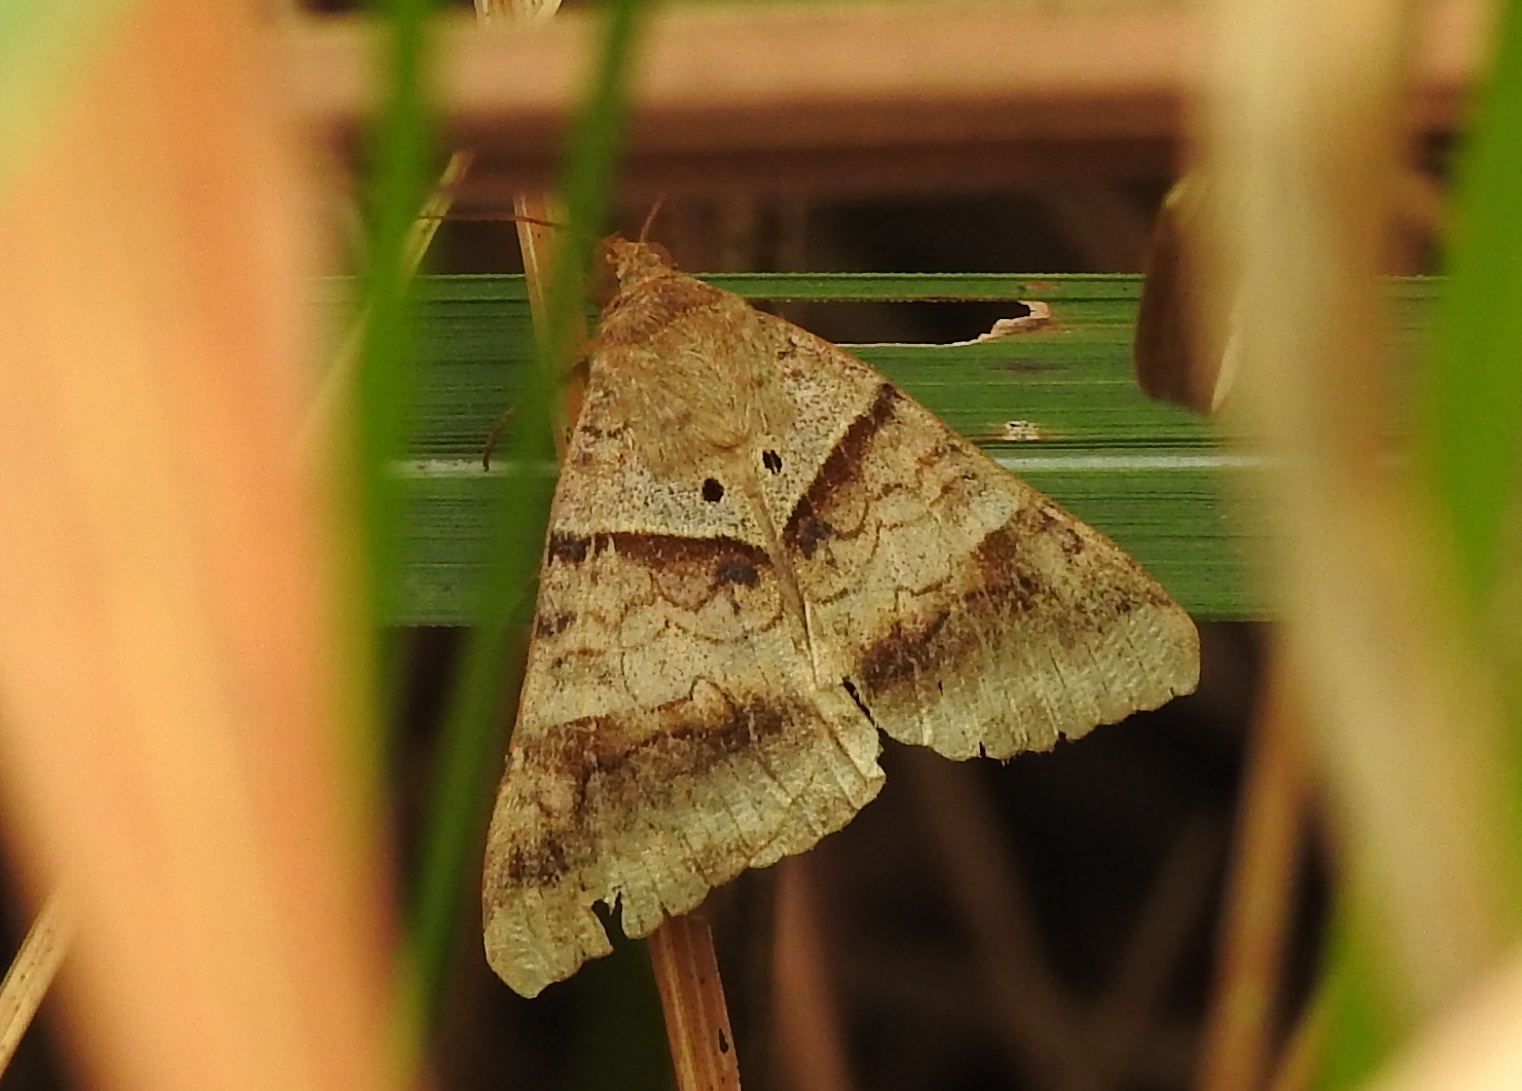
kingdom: Animalia
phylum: Arthropoda
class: Insecta
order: Lepidoptera
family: Erebidae
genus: Mocis
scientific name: Mocis undata
